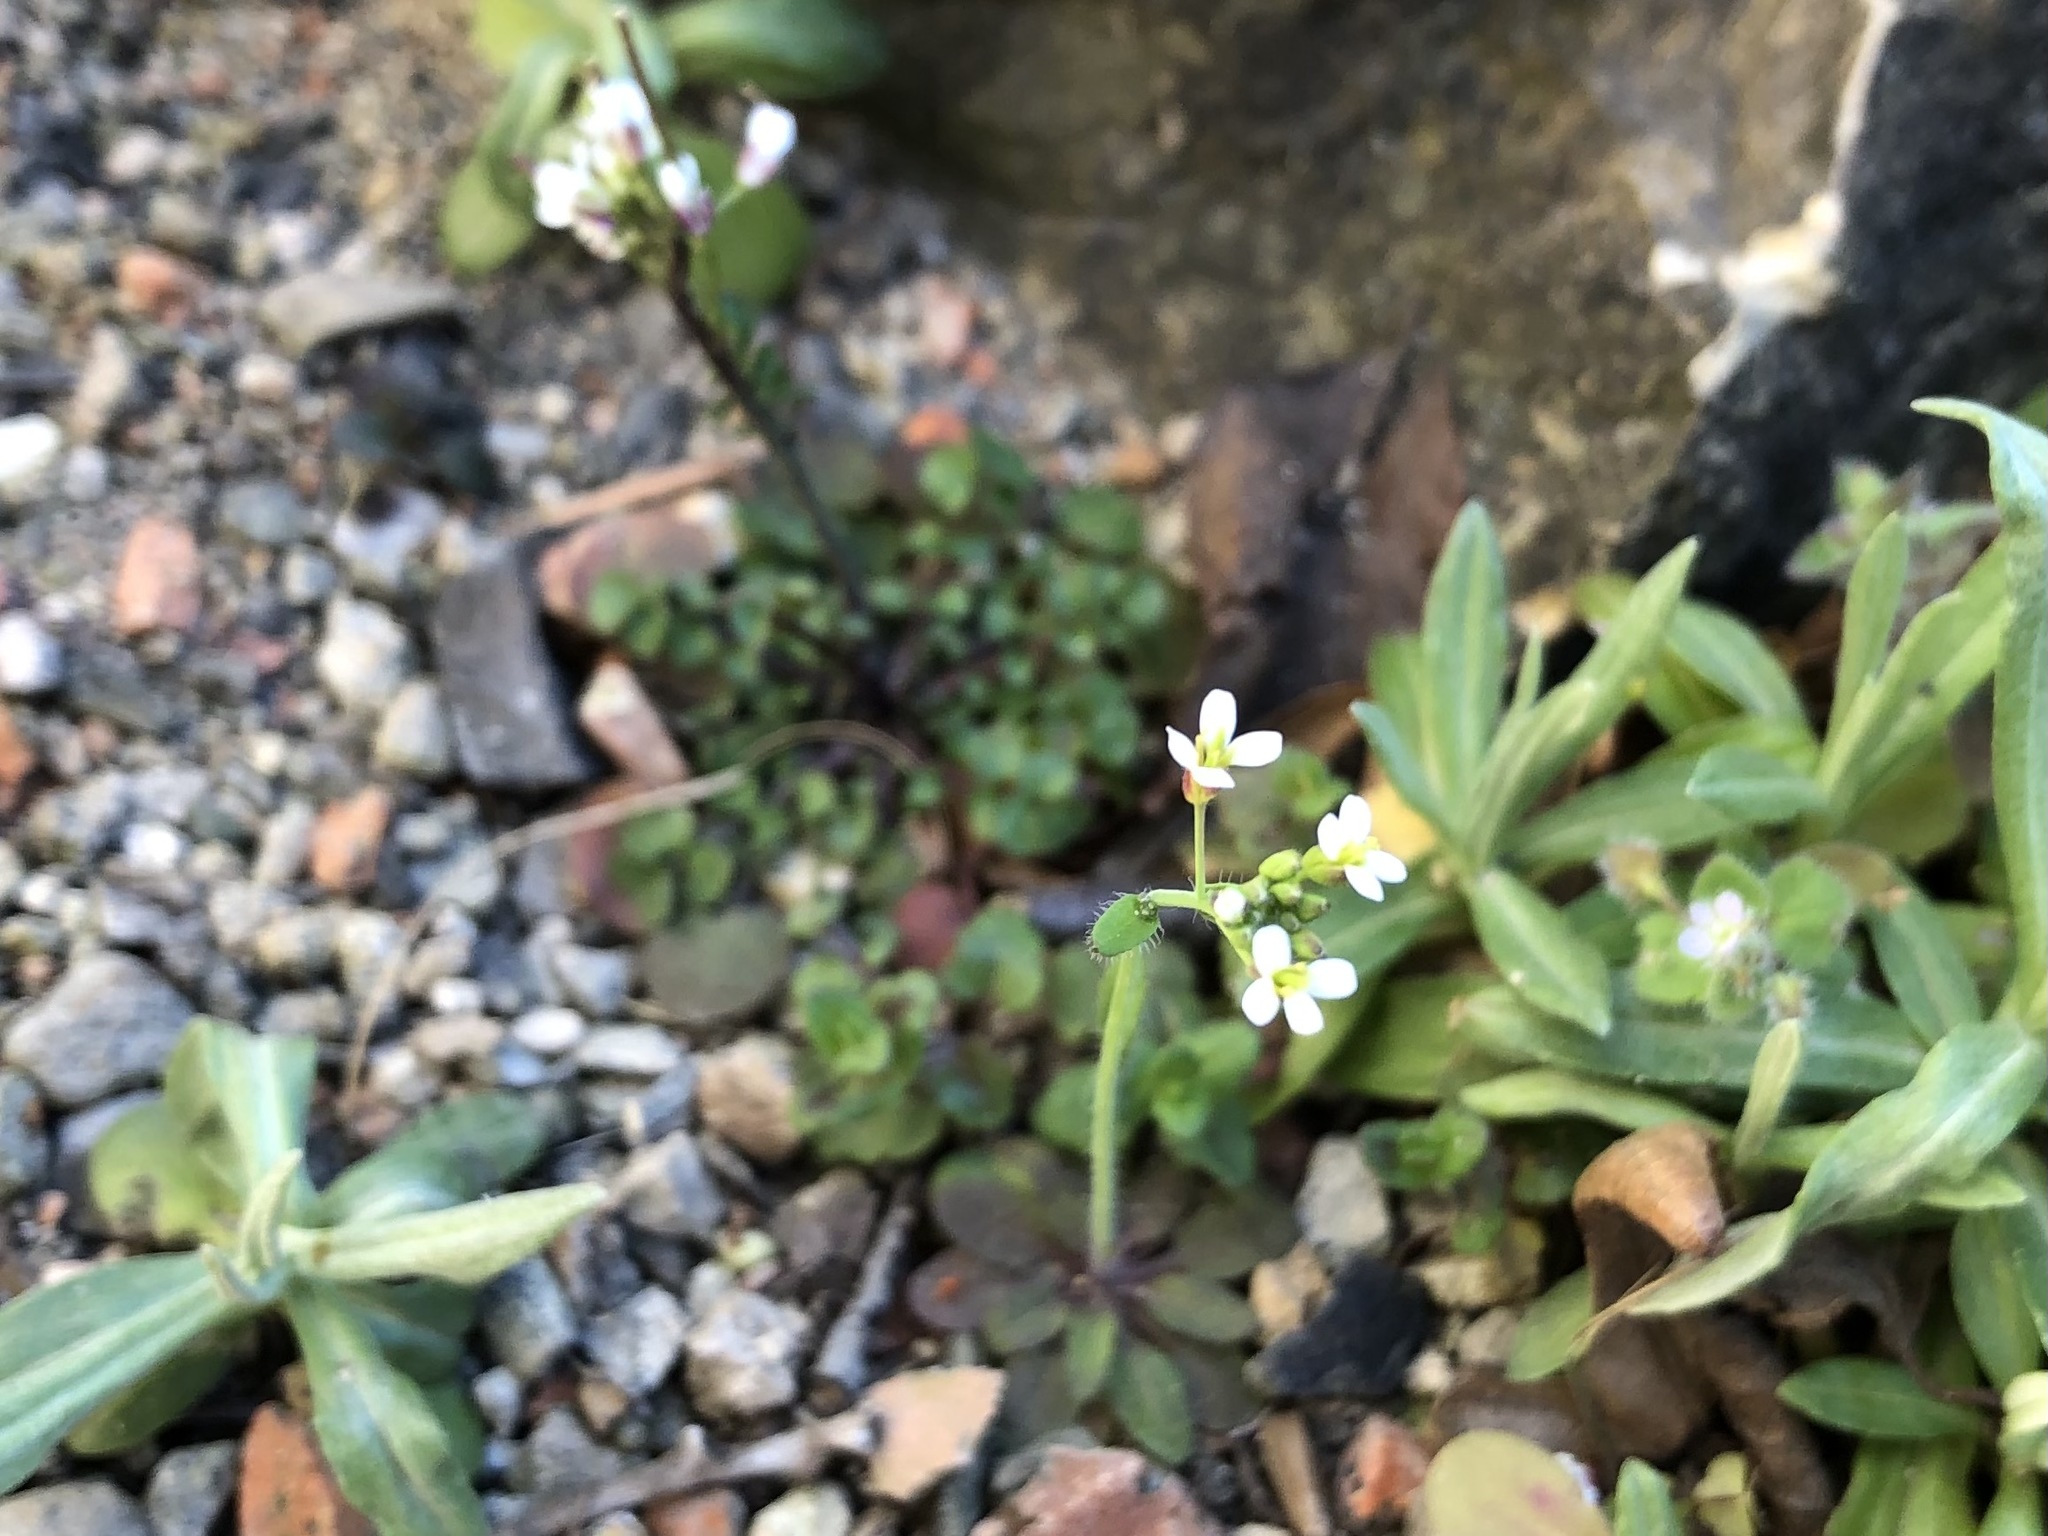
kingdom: Plantae
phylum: Tracheophyta
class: Magnoliopsida
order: Brassicales
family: Brassicaceae
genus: Cardamine
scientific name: Cardamine hirsuta
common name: Hairy bittercress
